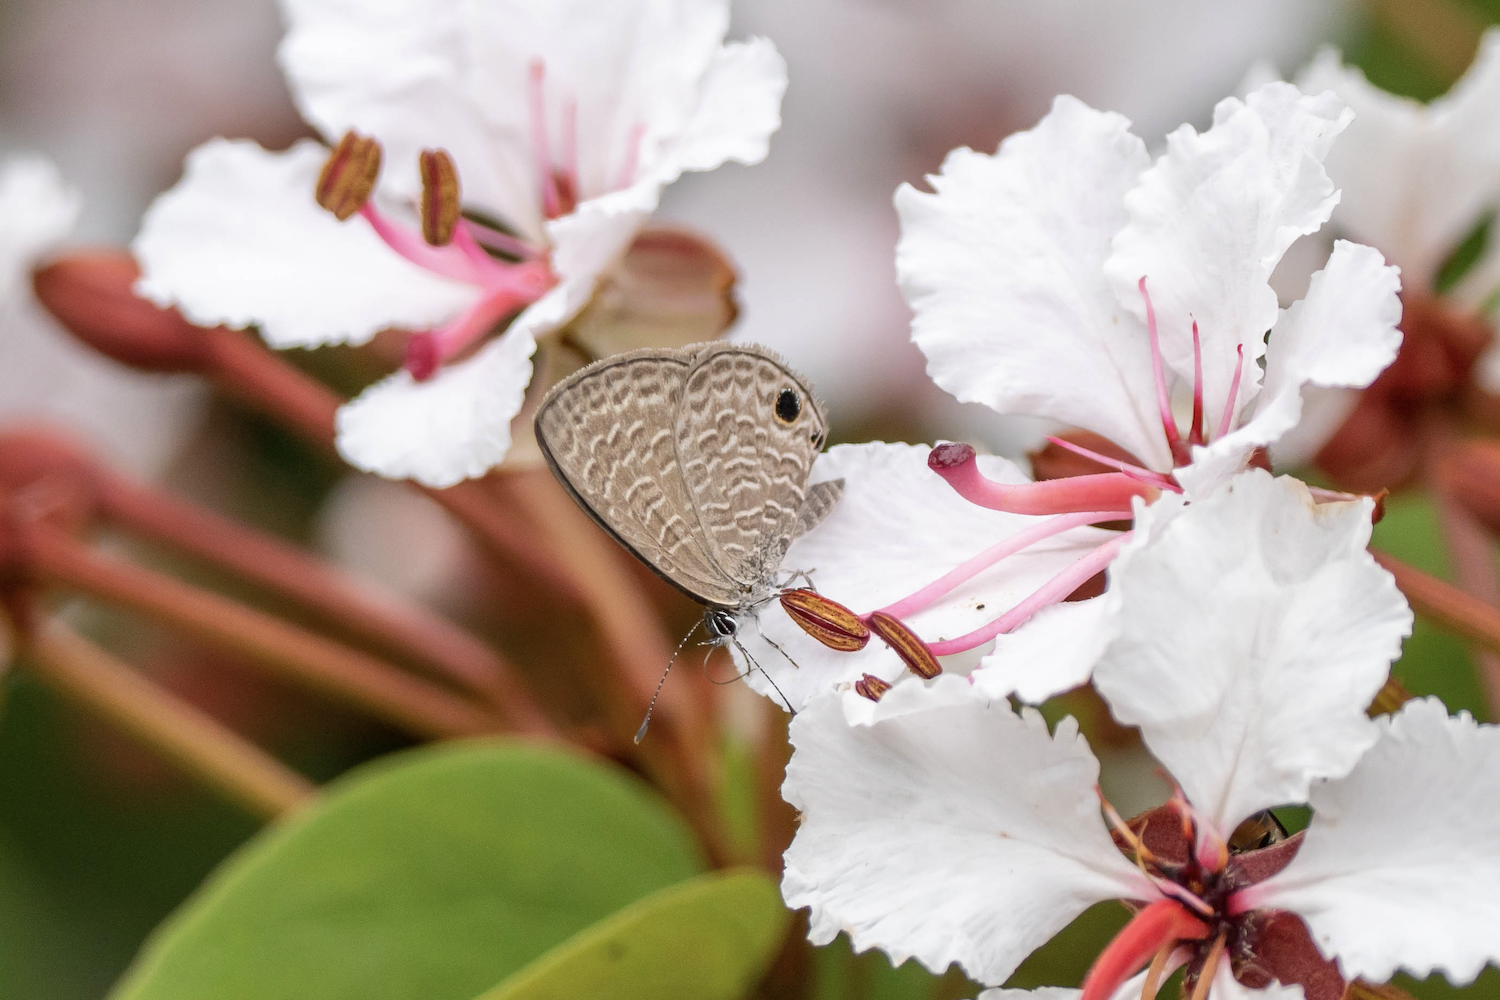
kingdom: Animalia
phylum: Arthropoda
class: Insecta
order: Lepidoptera
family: Lycaenidae
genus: Prosotas
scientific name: Prosotas dubiosa
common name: Tailless lineblue
